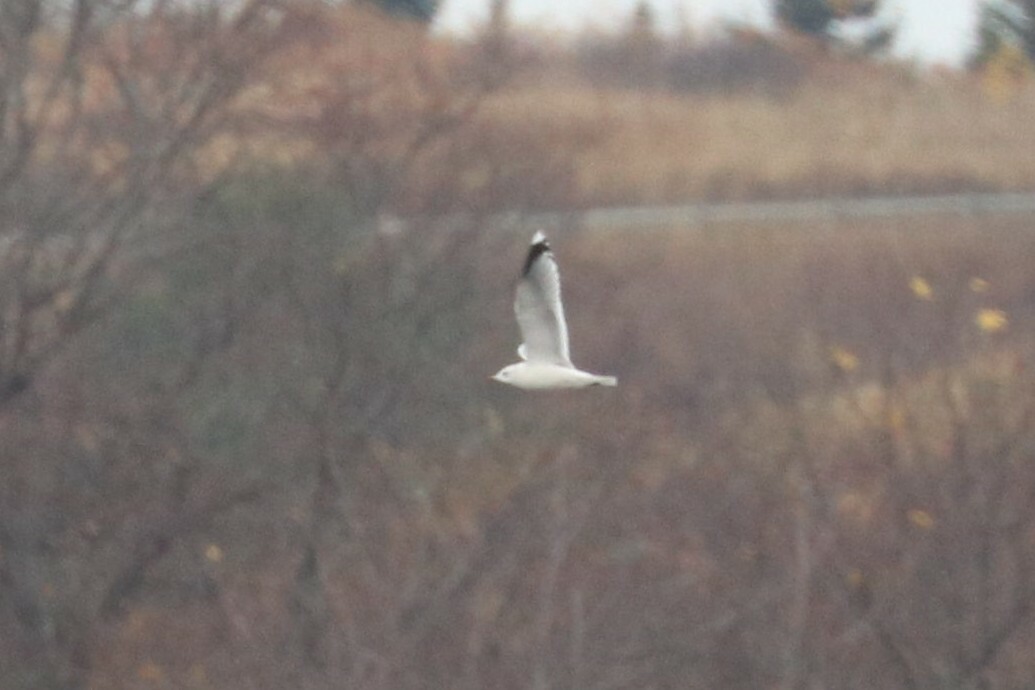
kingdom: Animalia
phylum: Chordata
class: Aves
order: Charadriiformes
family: Laridae
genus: Larus
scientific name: Larus canus
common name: Mew gull
